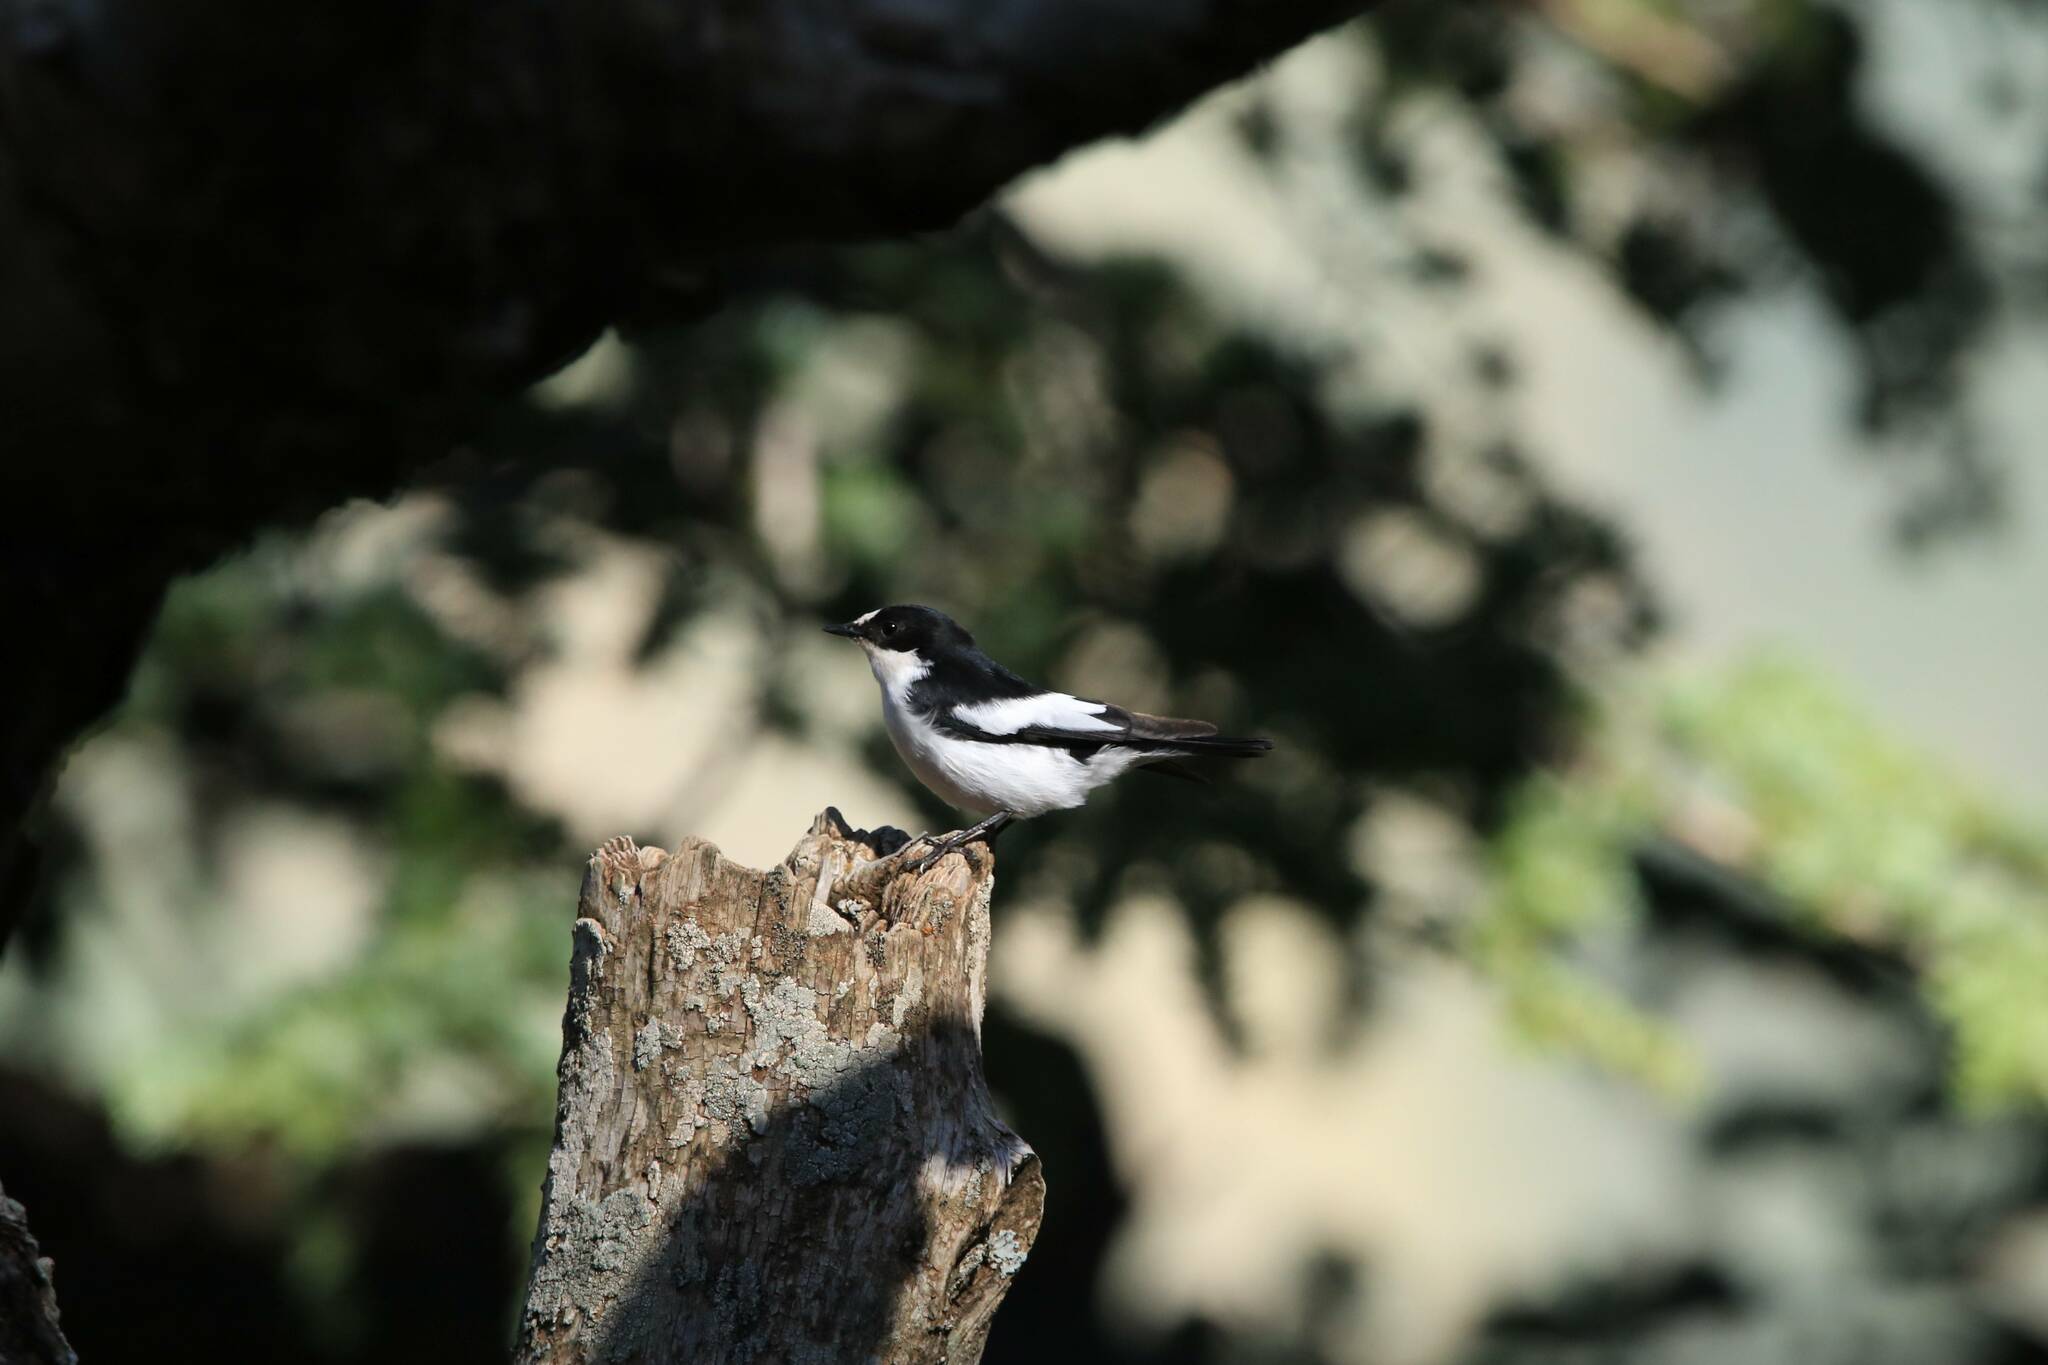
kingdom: Animalia
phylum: Chordata
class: Aves
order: Passeriformes
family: Muscicapidae
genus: Ficedula
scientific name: Ficedula speculigera
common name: Atlas pied flycatcher
